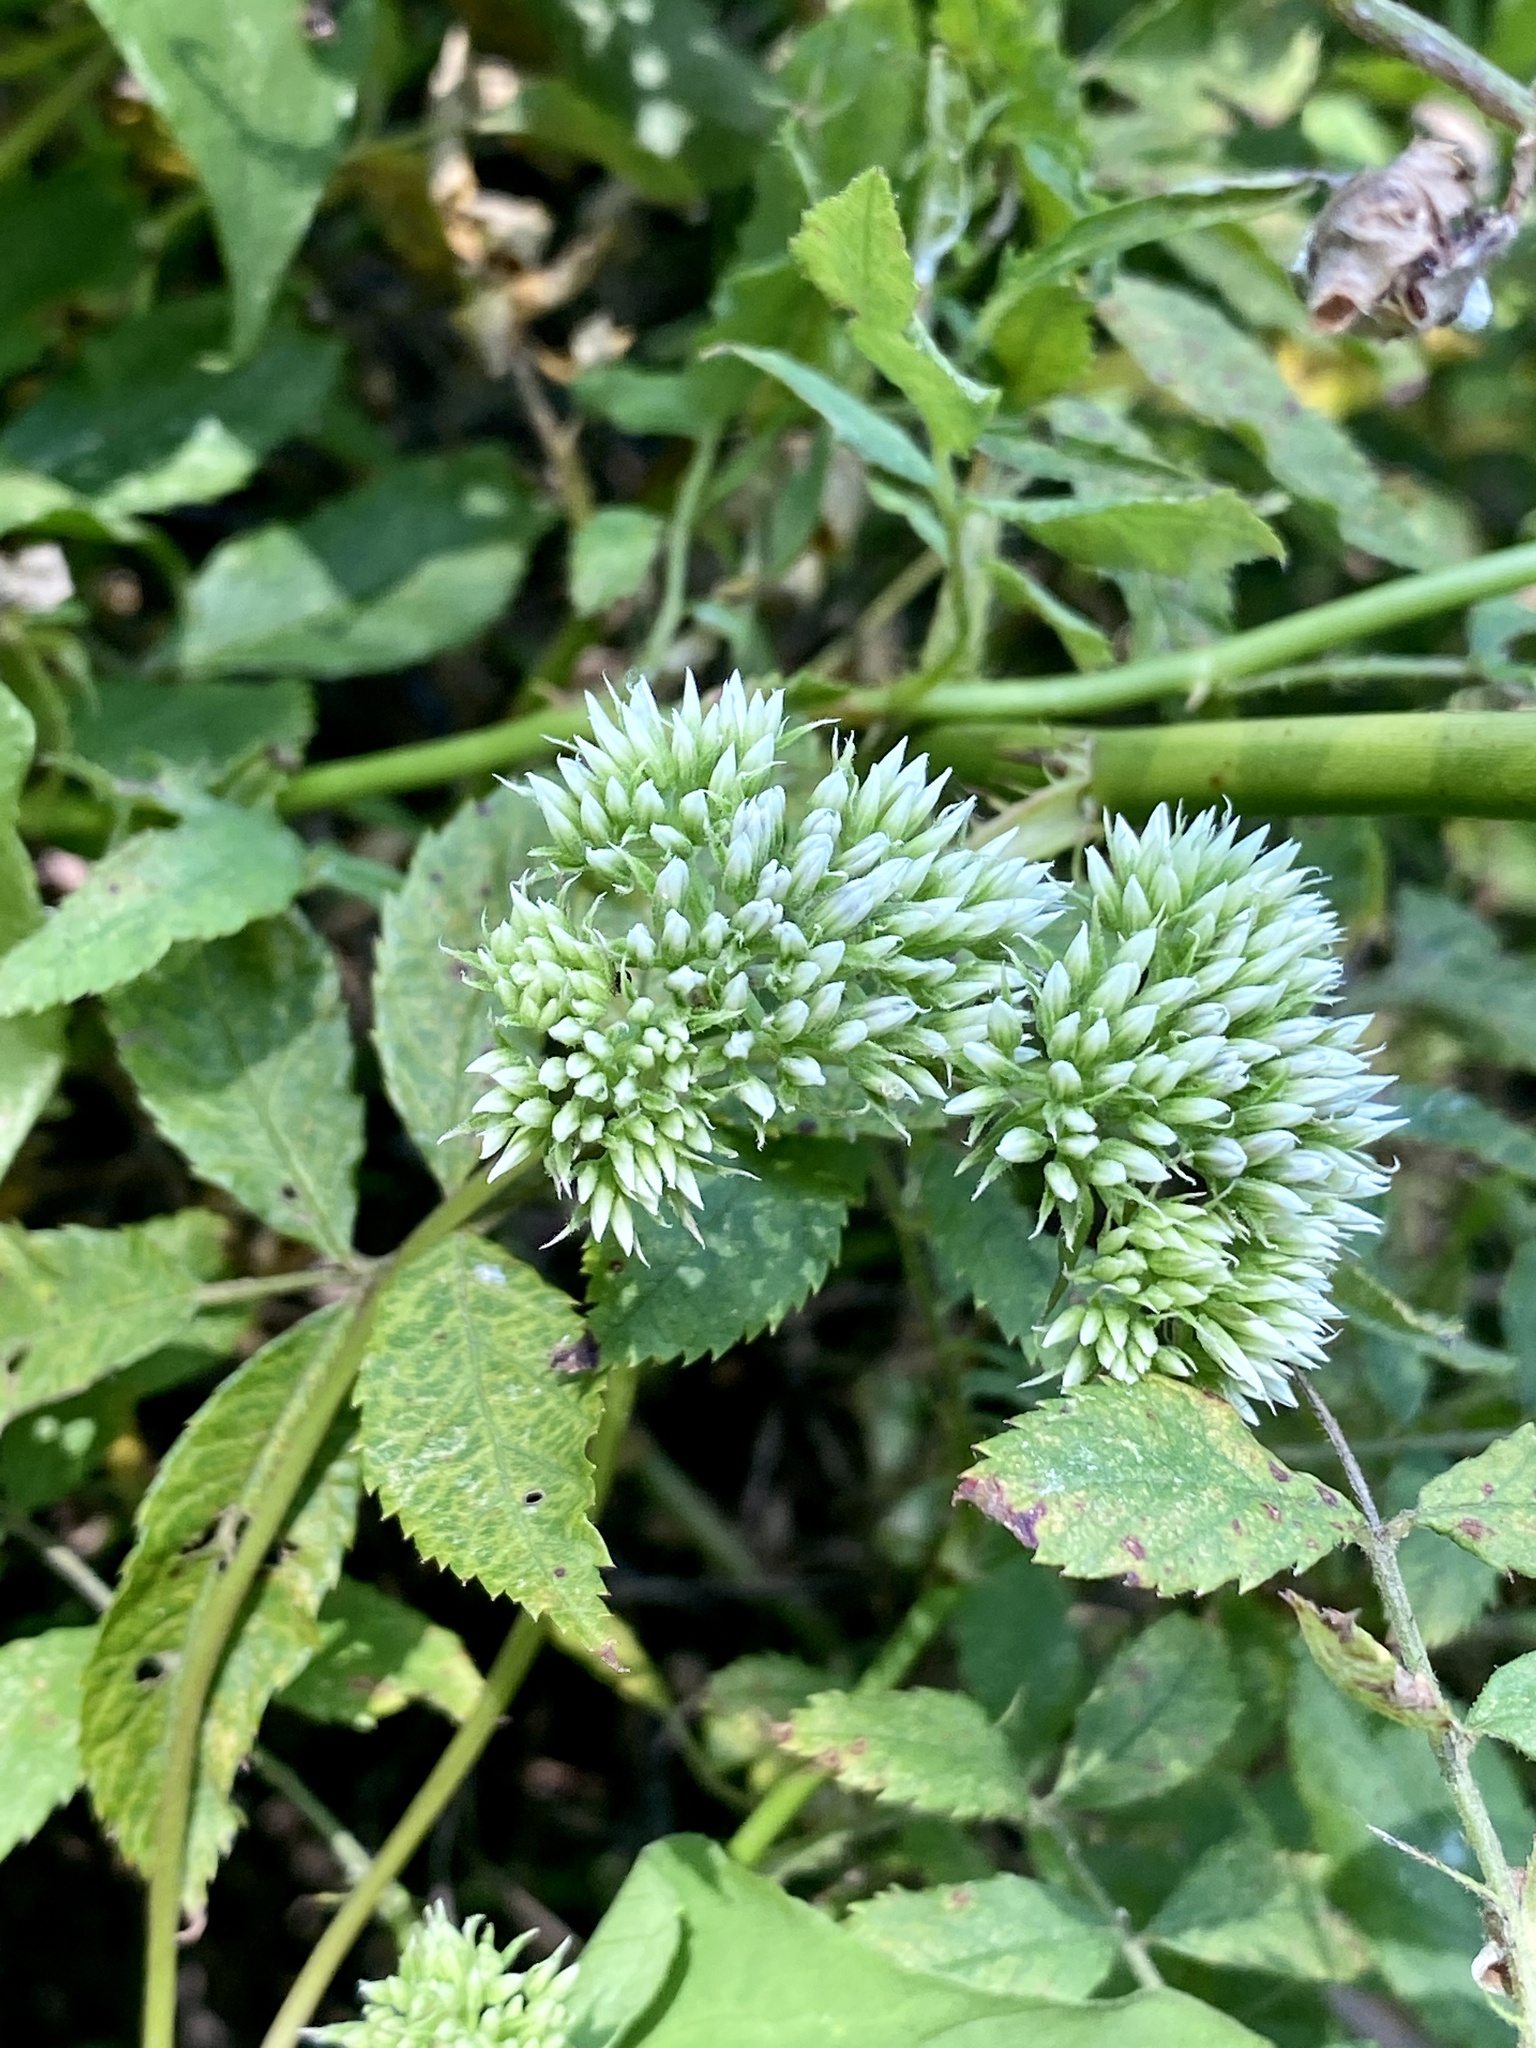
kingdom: Plantae
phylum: Tracheophyta
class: Magnoliopsida
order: Asterales
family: Asteraceae
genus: Mikania
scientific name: Mikania scandens
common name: Climbing hempvine
